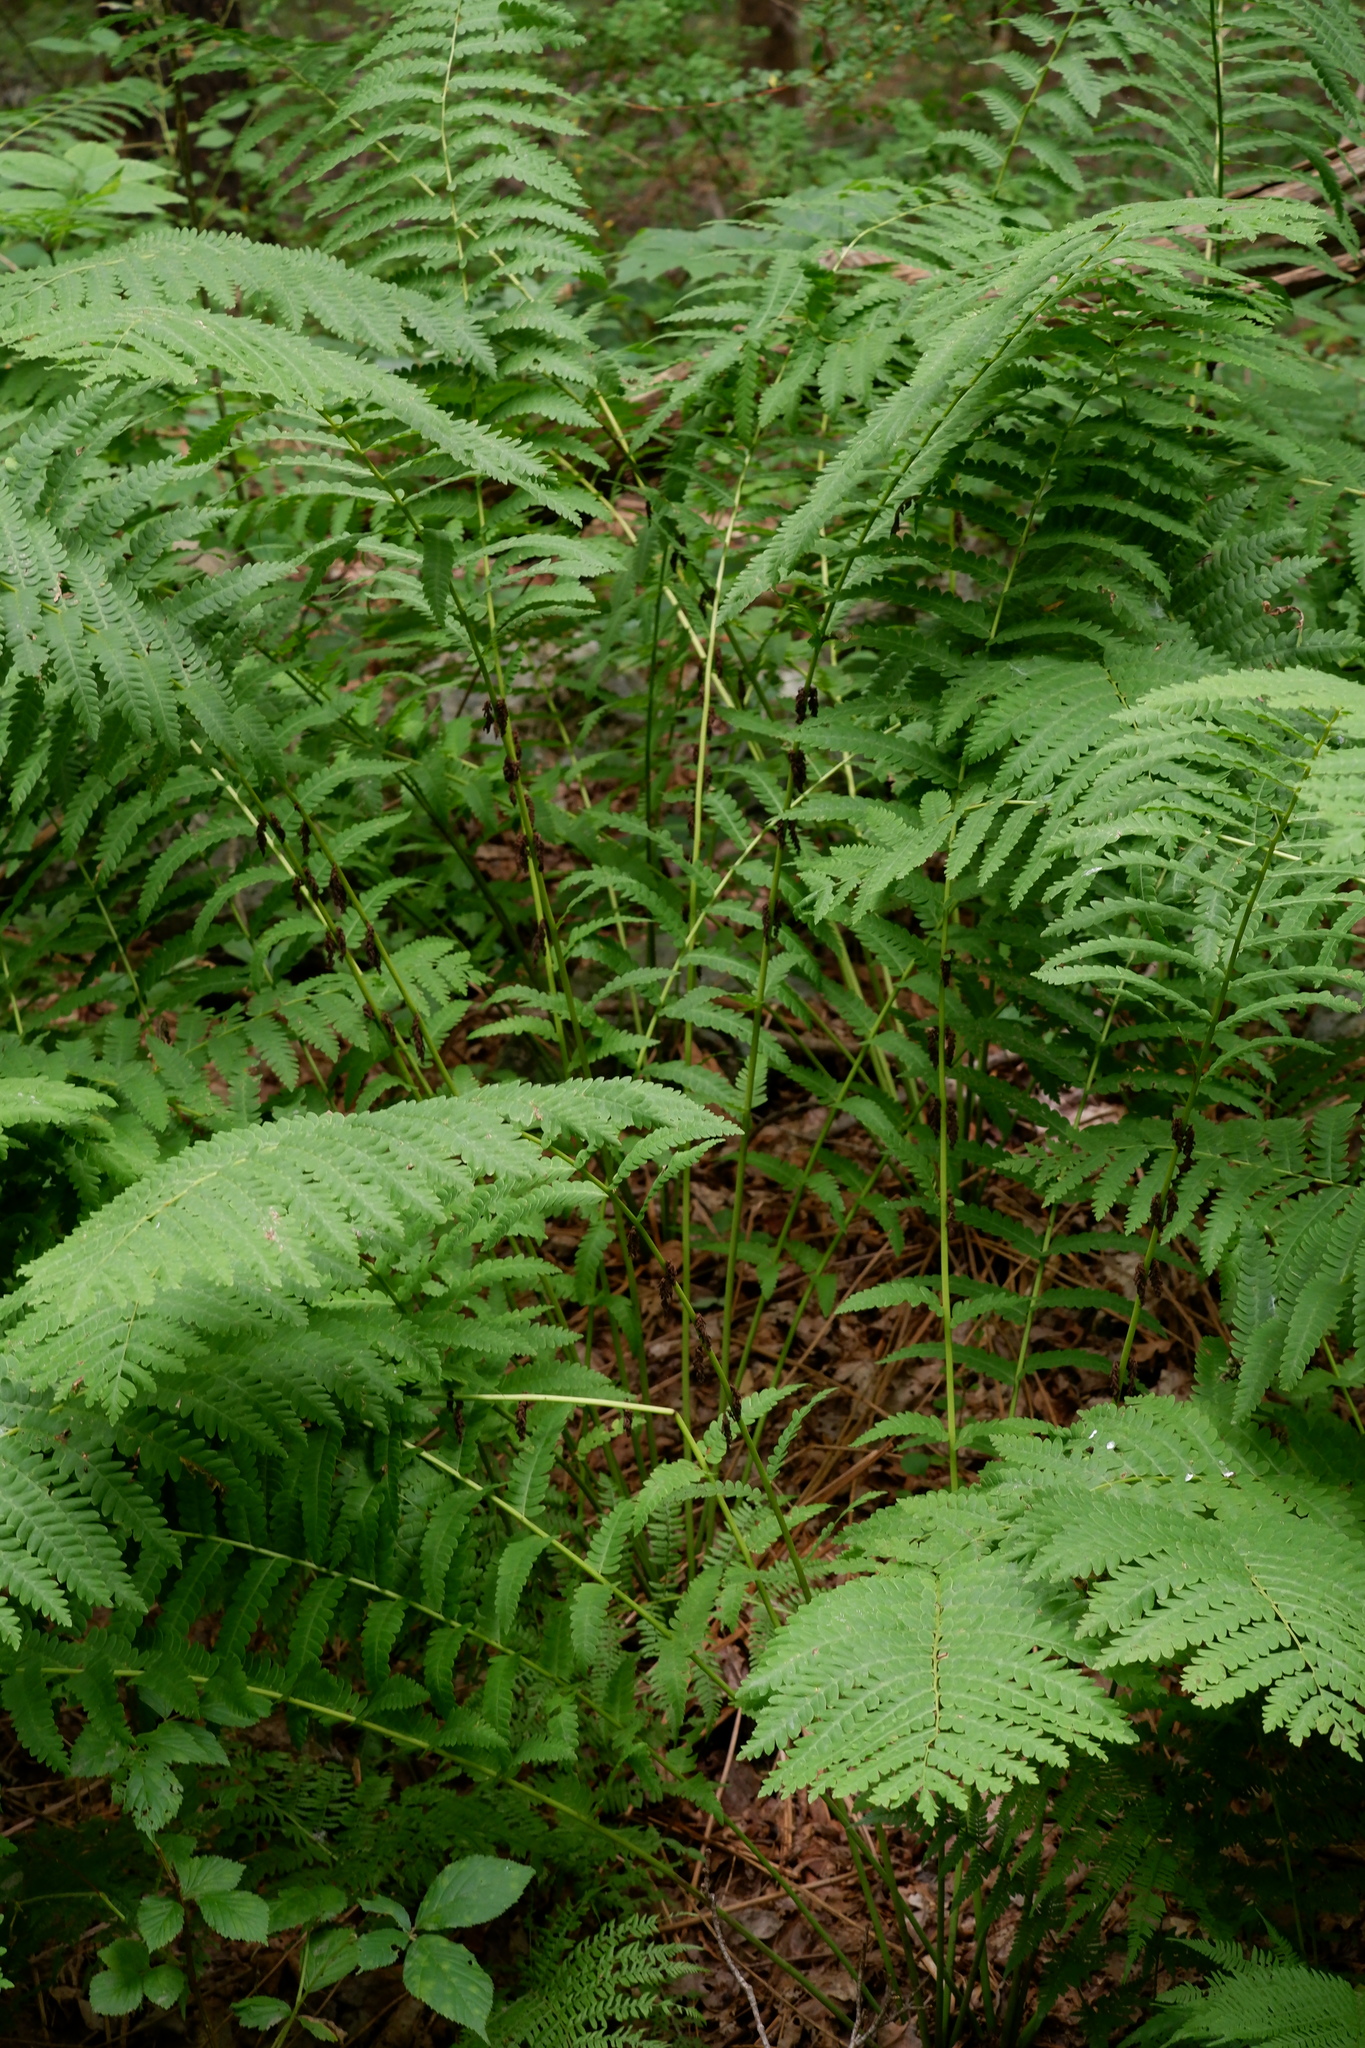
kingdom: Plantae
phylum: Tracheophyta
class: Polypodiopsida
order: Osmundales
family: Osmundaceae
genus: Claytosmunda
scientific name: Claytosmunda claytoniana
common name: Clayton's fern
